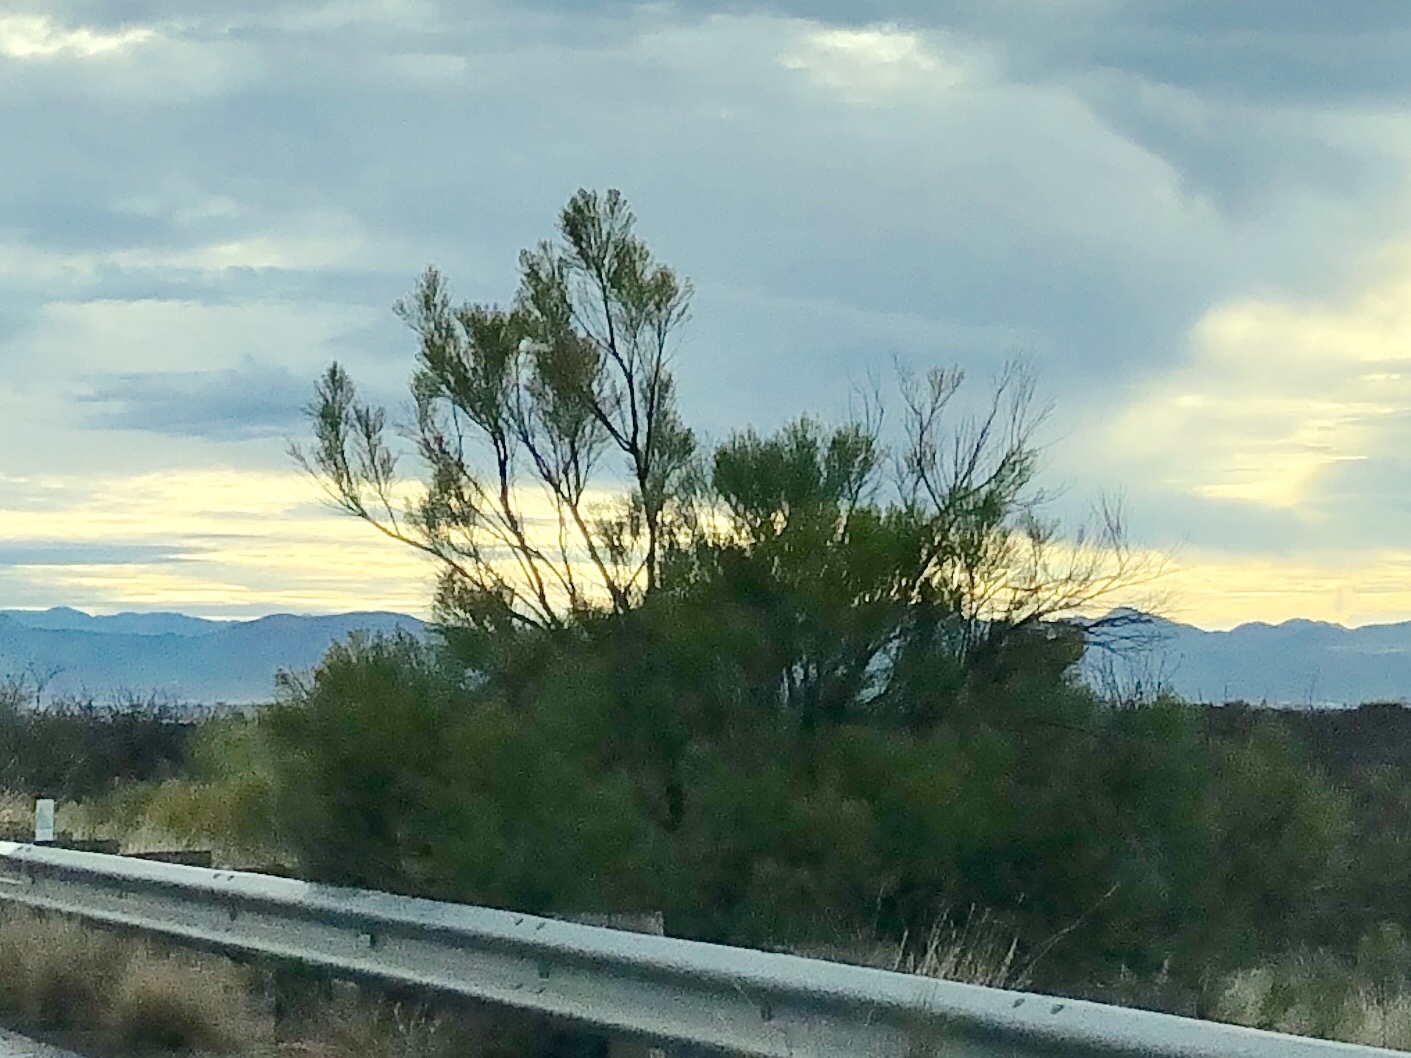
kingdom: Plantae
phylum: Tracheophyta
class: Magnoliopsida
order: Asterales
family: Asteraceae
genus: Baccharis
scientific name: Baccharis sarothroides
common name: Desert-broom
